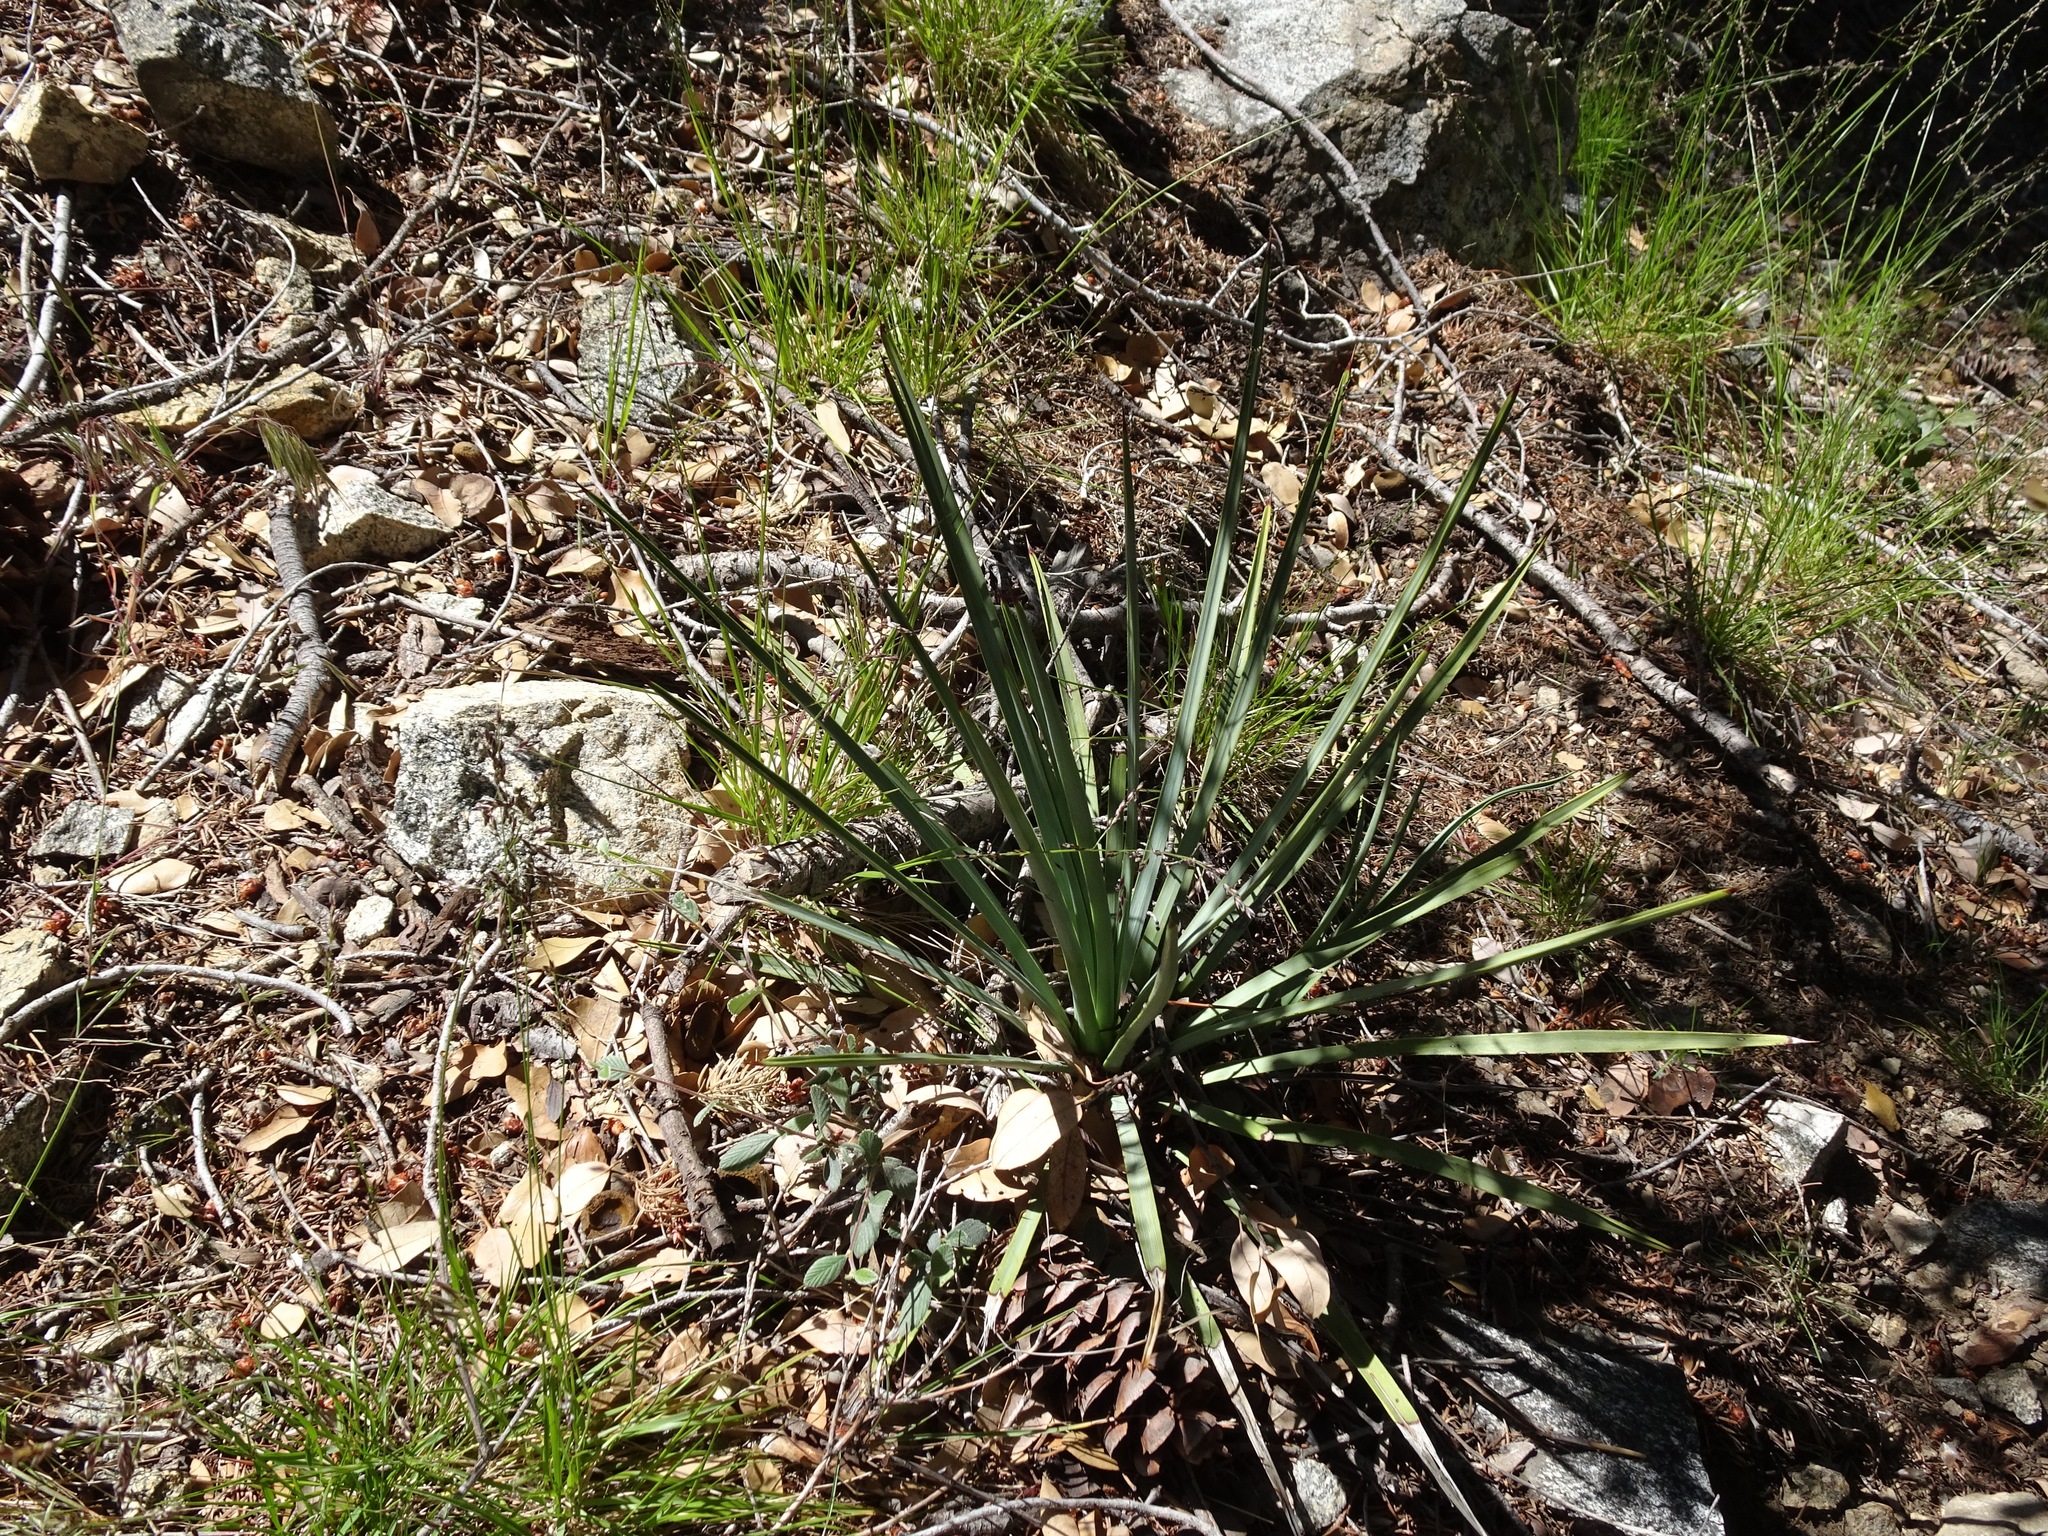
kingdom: Plantae
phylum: Tracheophyta
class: Liliopsida
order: Asparagales
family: Asparagaceae
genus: Hesperoyucca
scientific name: Hesperoyucca whipplei
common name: Our lord's-candle
